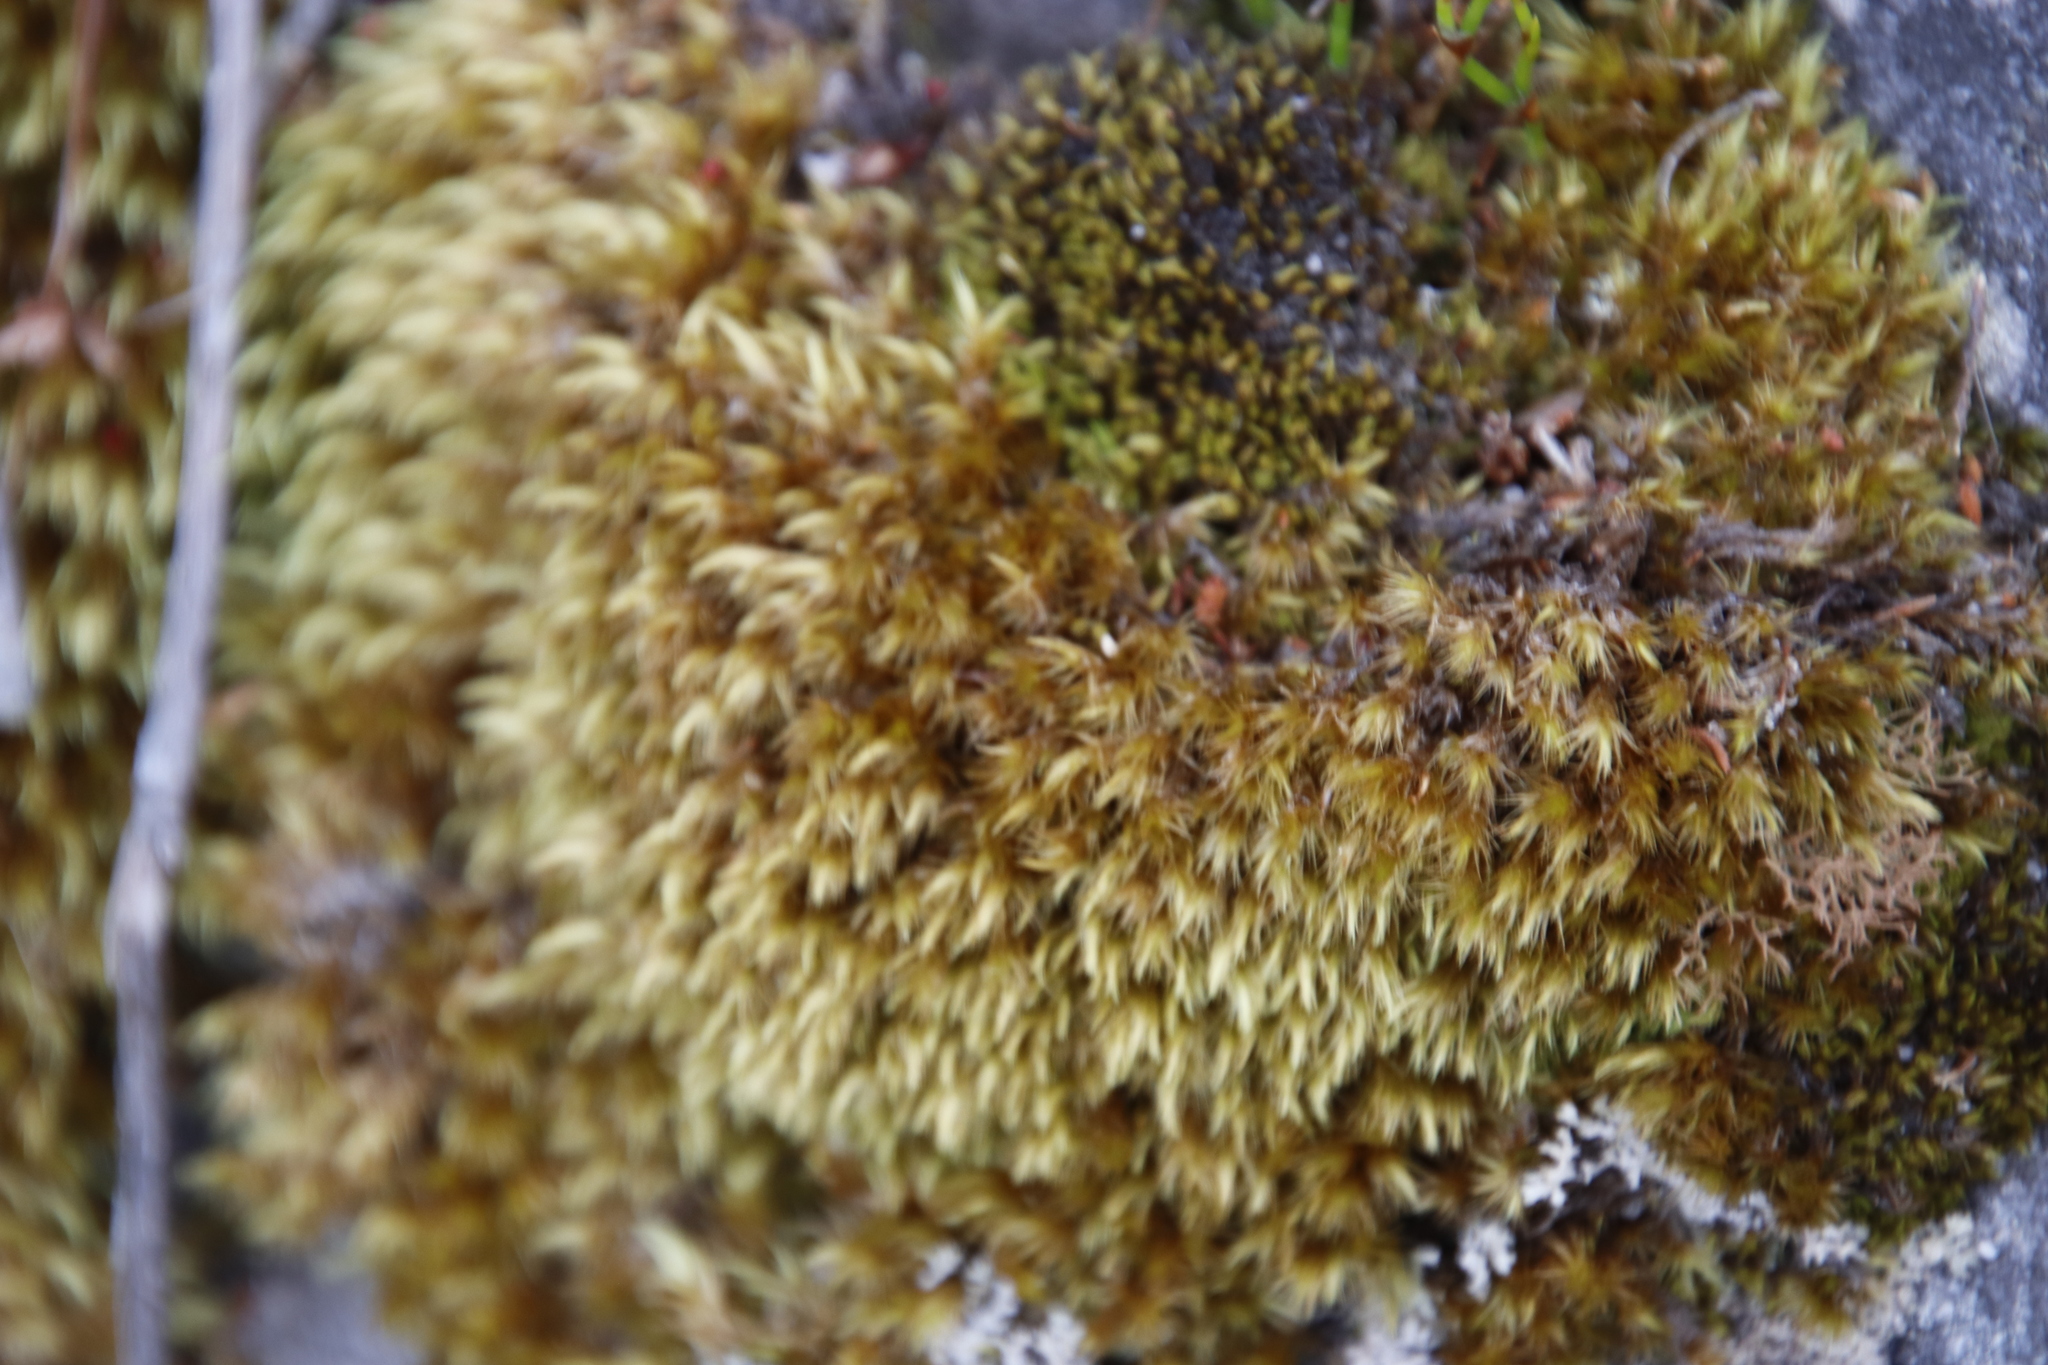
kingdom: Plantae
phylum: Bryophyta
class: Bryopsida
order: Dicranales
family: Dicranaceae
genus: Dicranoloma
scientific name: Dicranoloma billardieri
